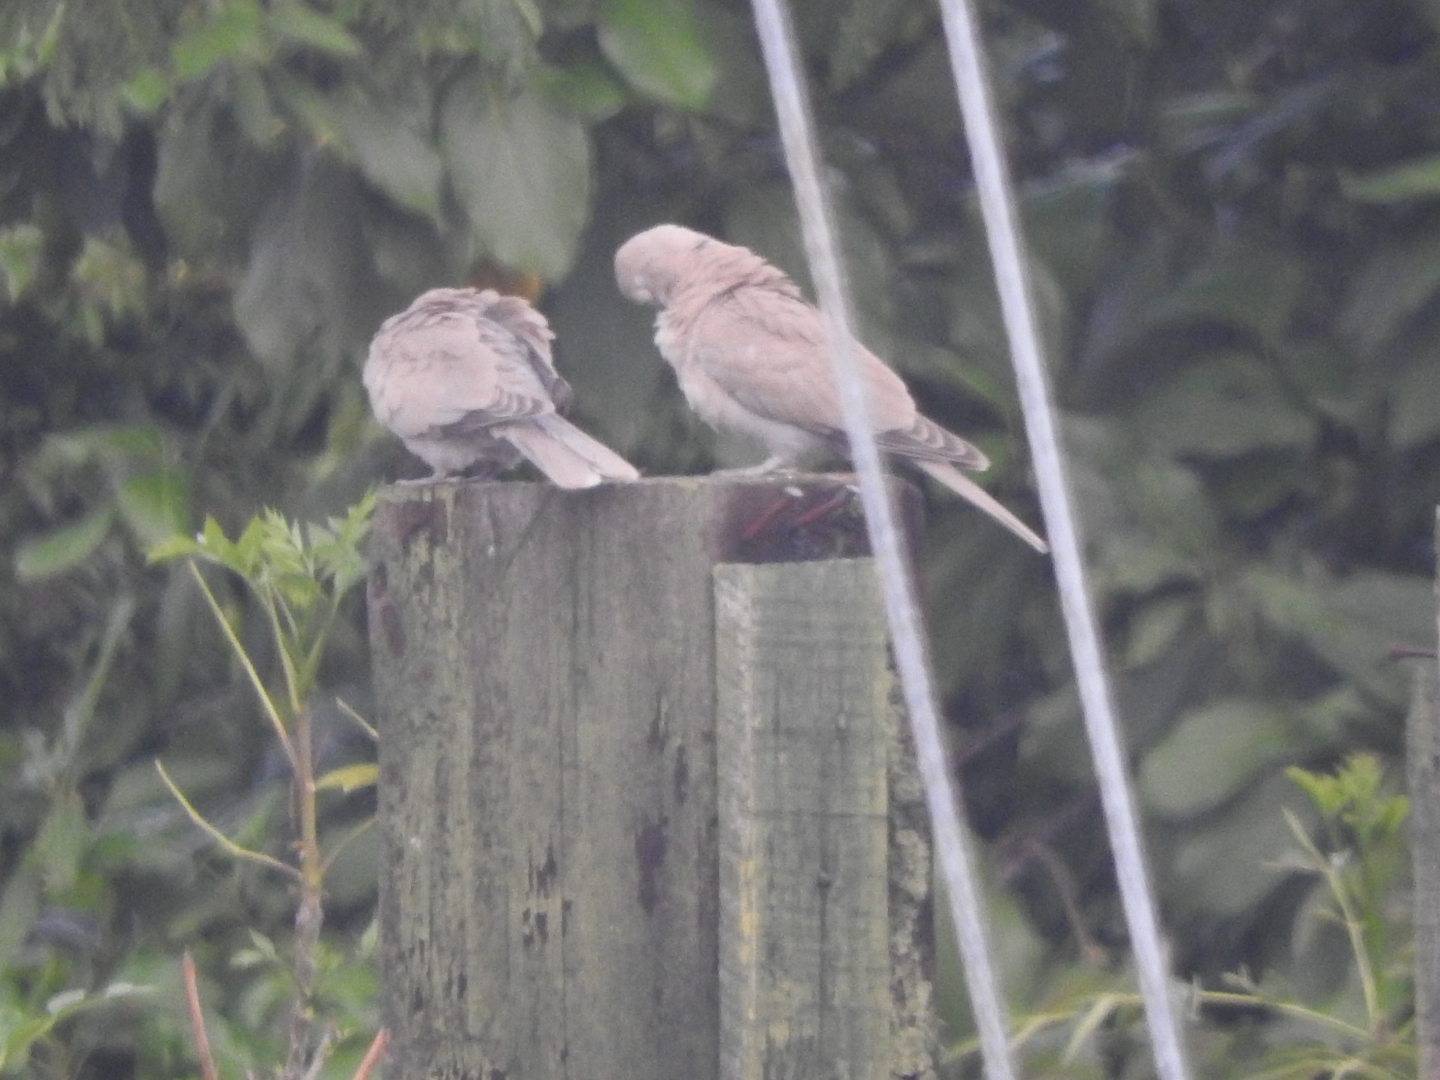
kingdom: Animalia
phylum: Chordata
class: Aves
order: Columbiformes
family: Columbidae
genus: Streptopelia
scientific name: Streptopelia decaocto
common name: Eurasian collared dove
